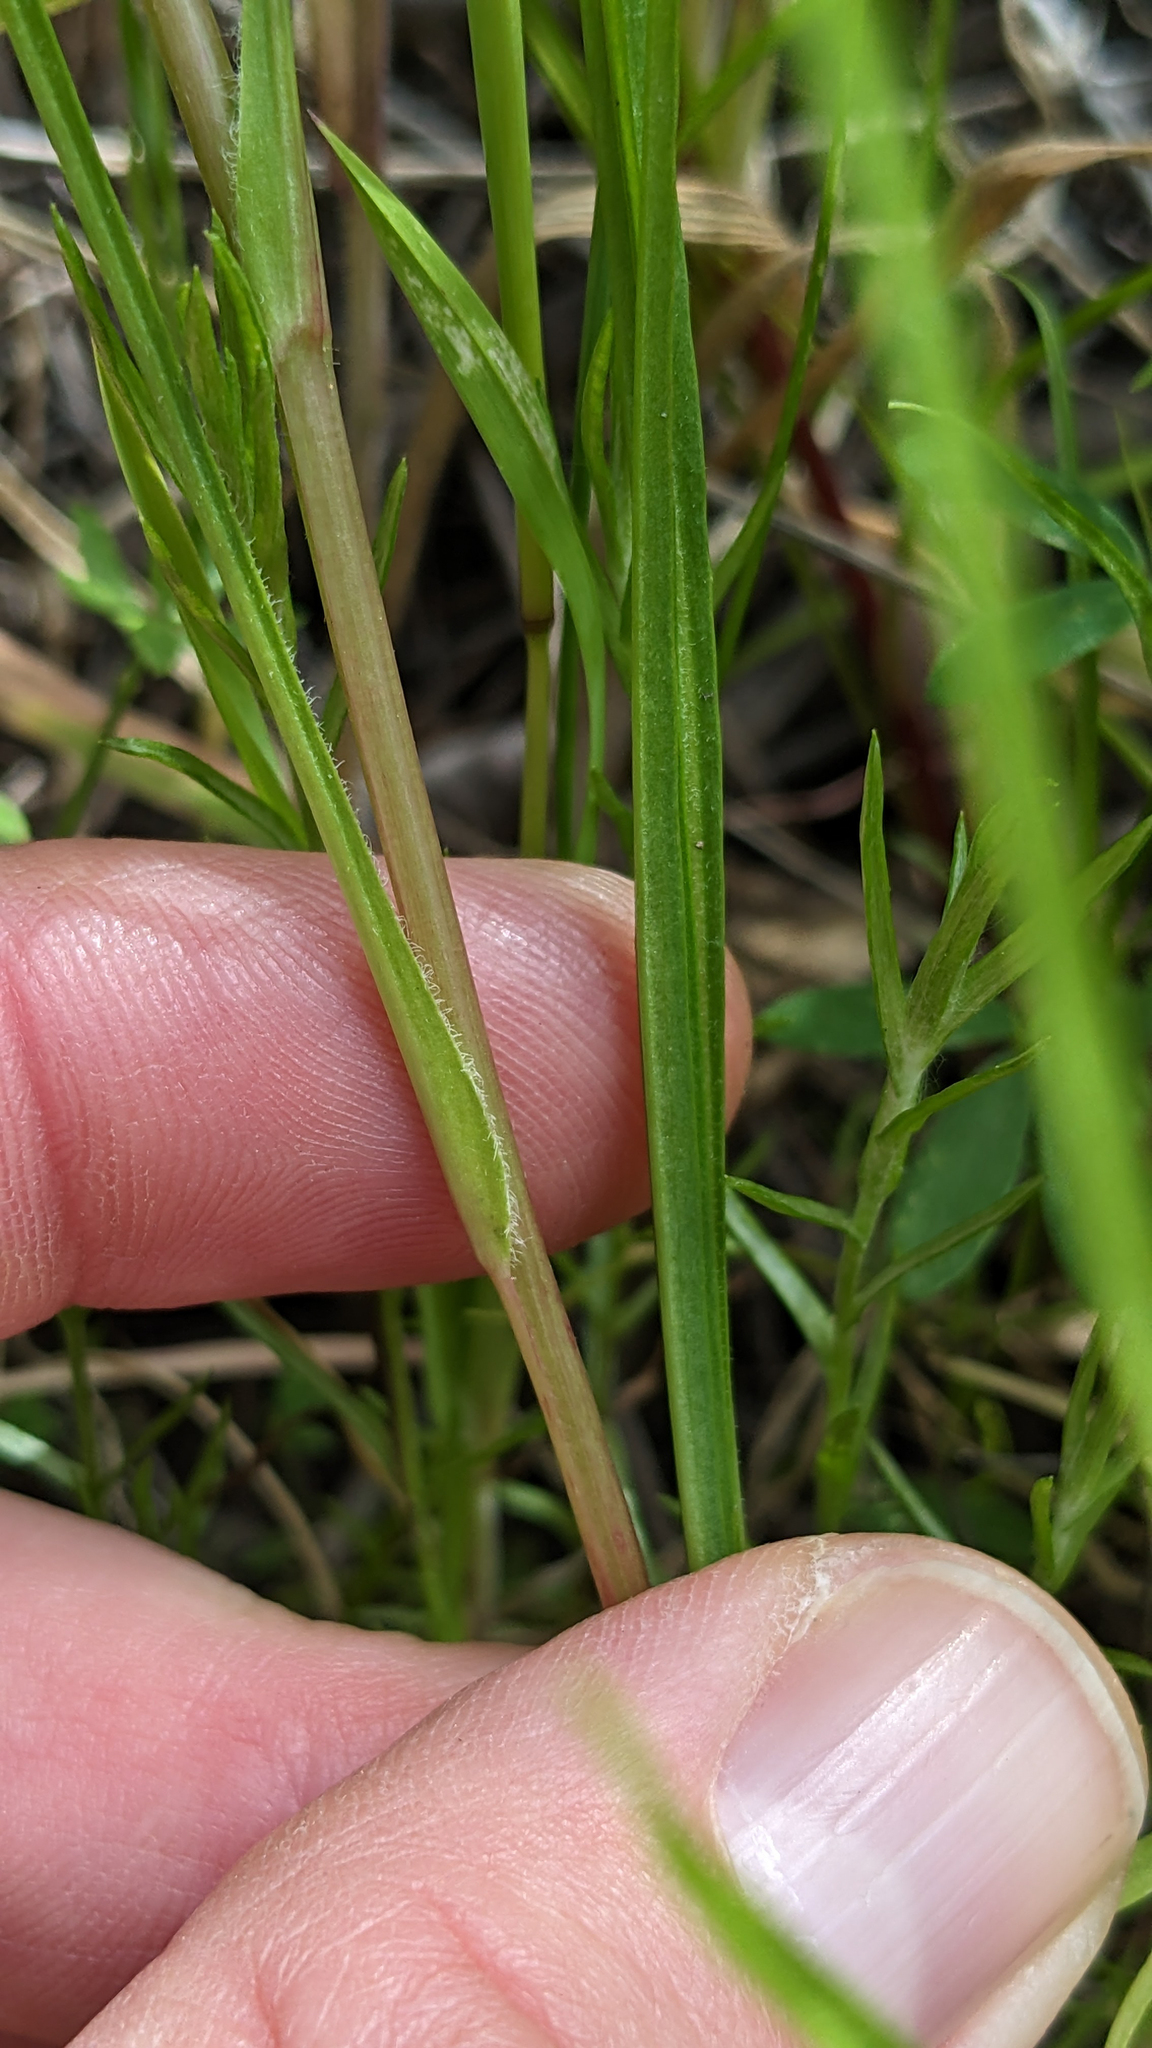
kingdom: Plantae
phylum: Tracheophyta
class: Magnoliopsida
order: Asterales
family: Asteraceae
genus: Microseris
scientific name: Microseris lindleyi
